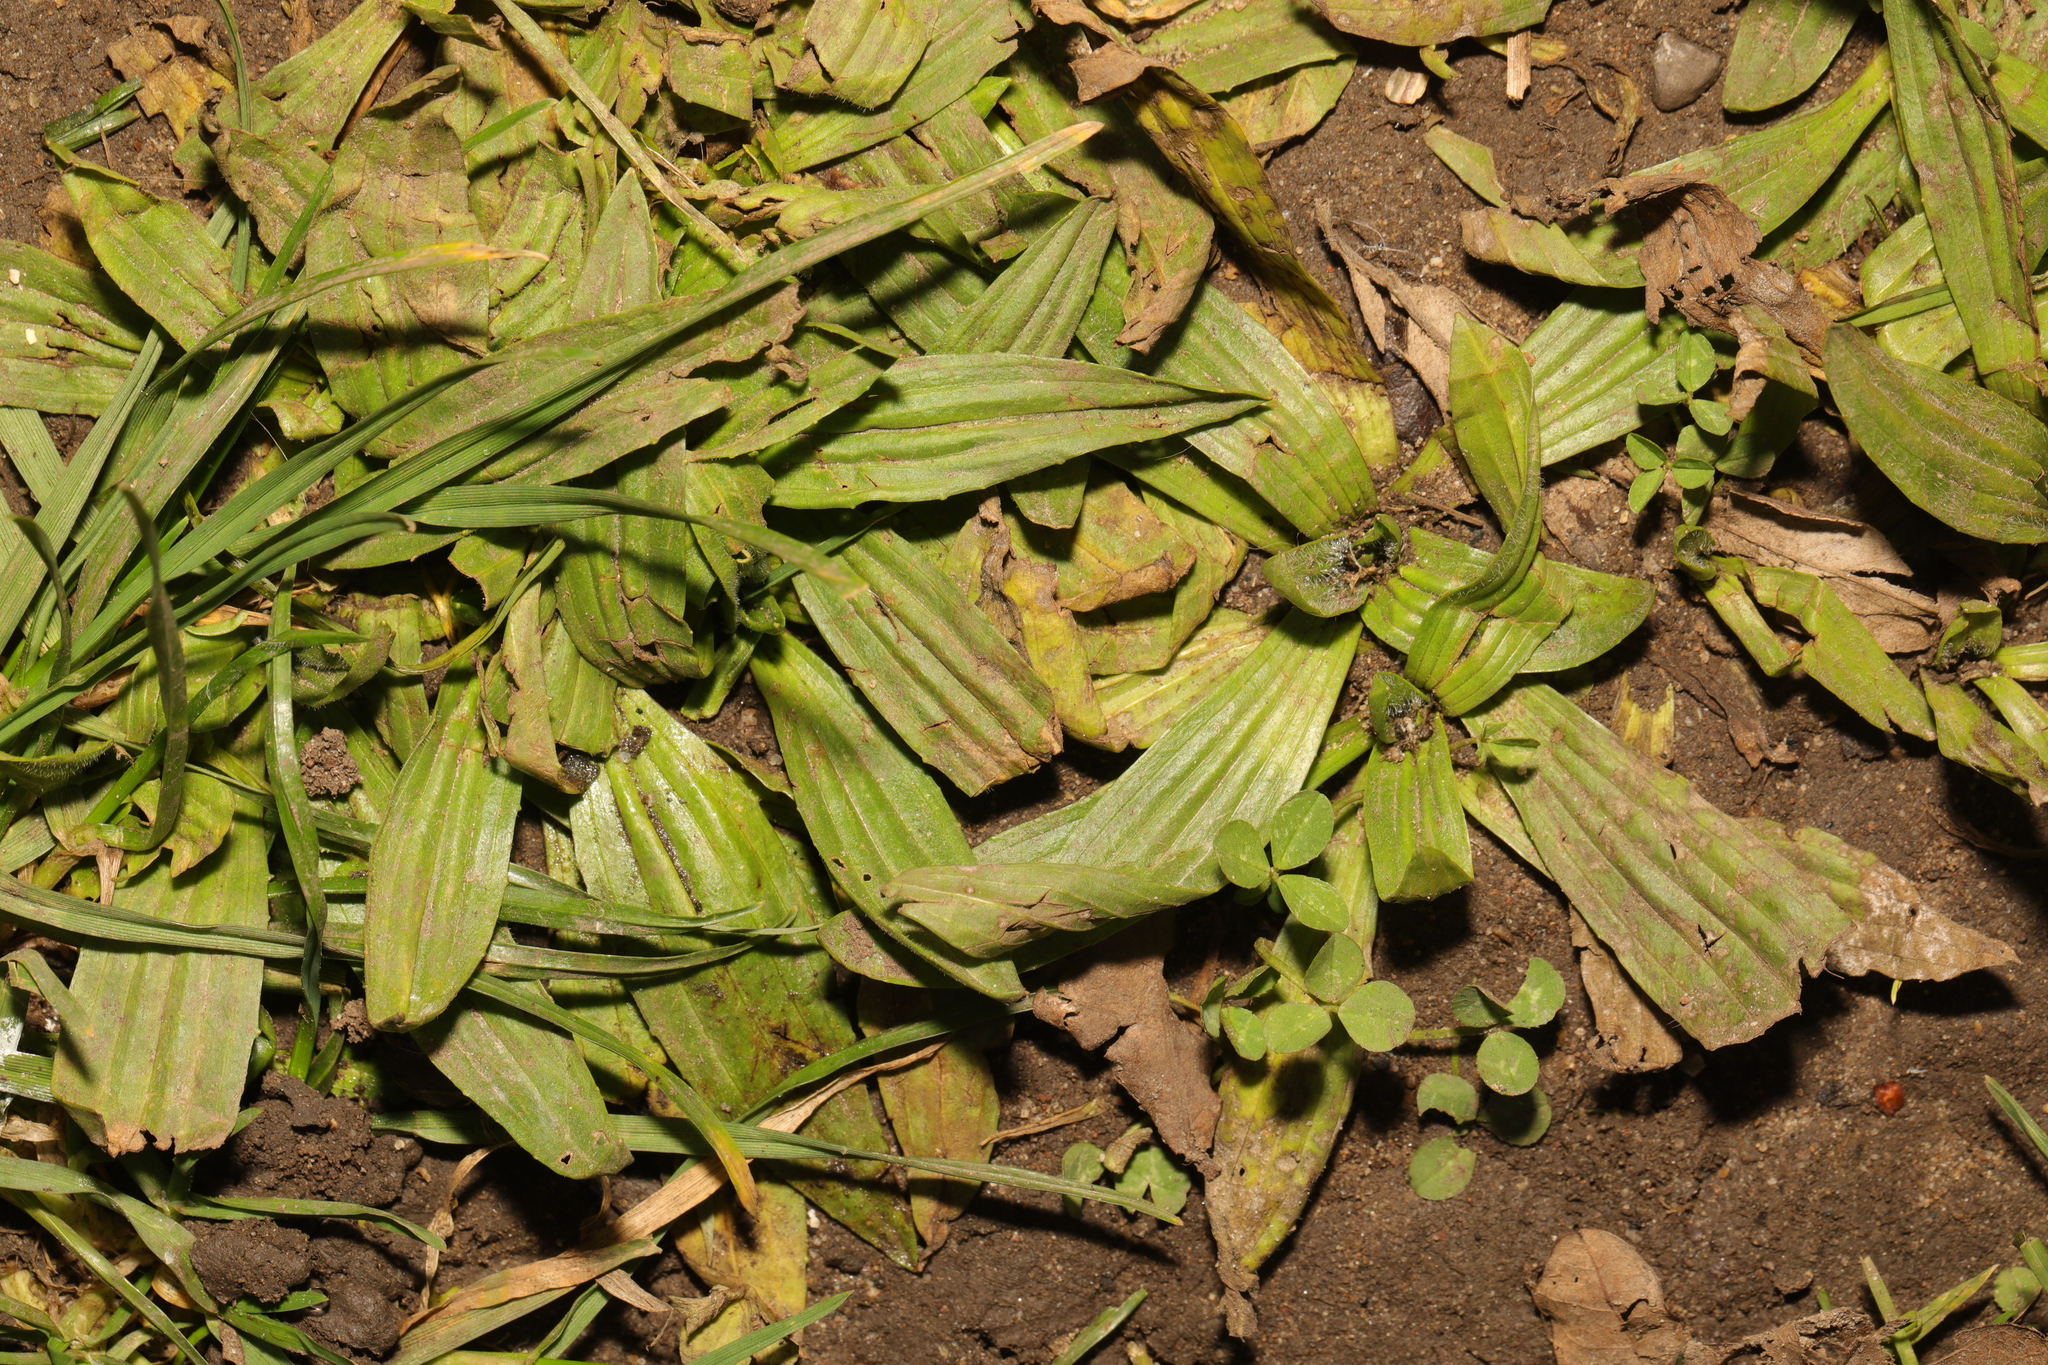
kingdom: Plantae
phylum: Tracheophyta
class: Magnoliopsida
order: Lamiales
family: Plantaginaceae
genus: Plantago
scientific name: Plantago lanceolata
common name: Ribwort plantain
